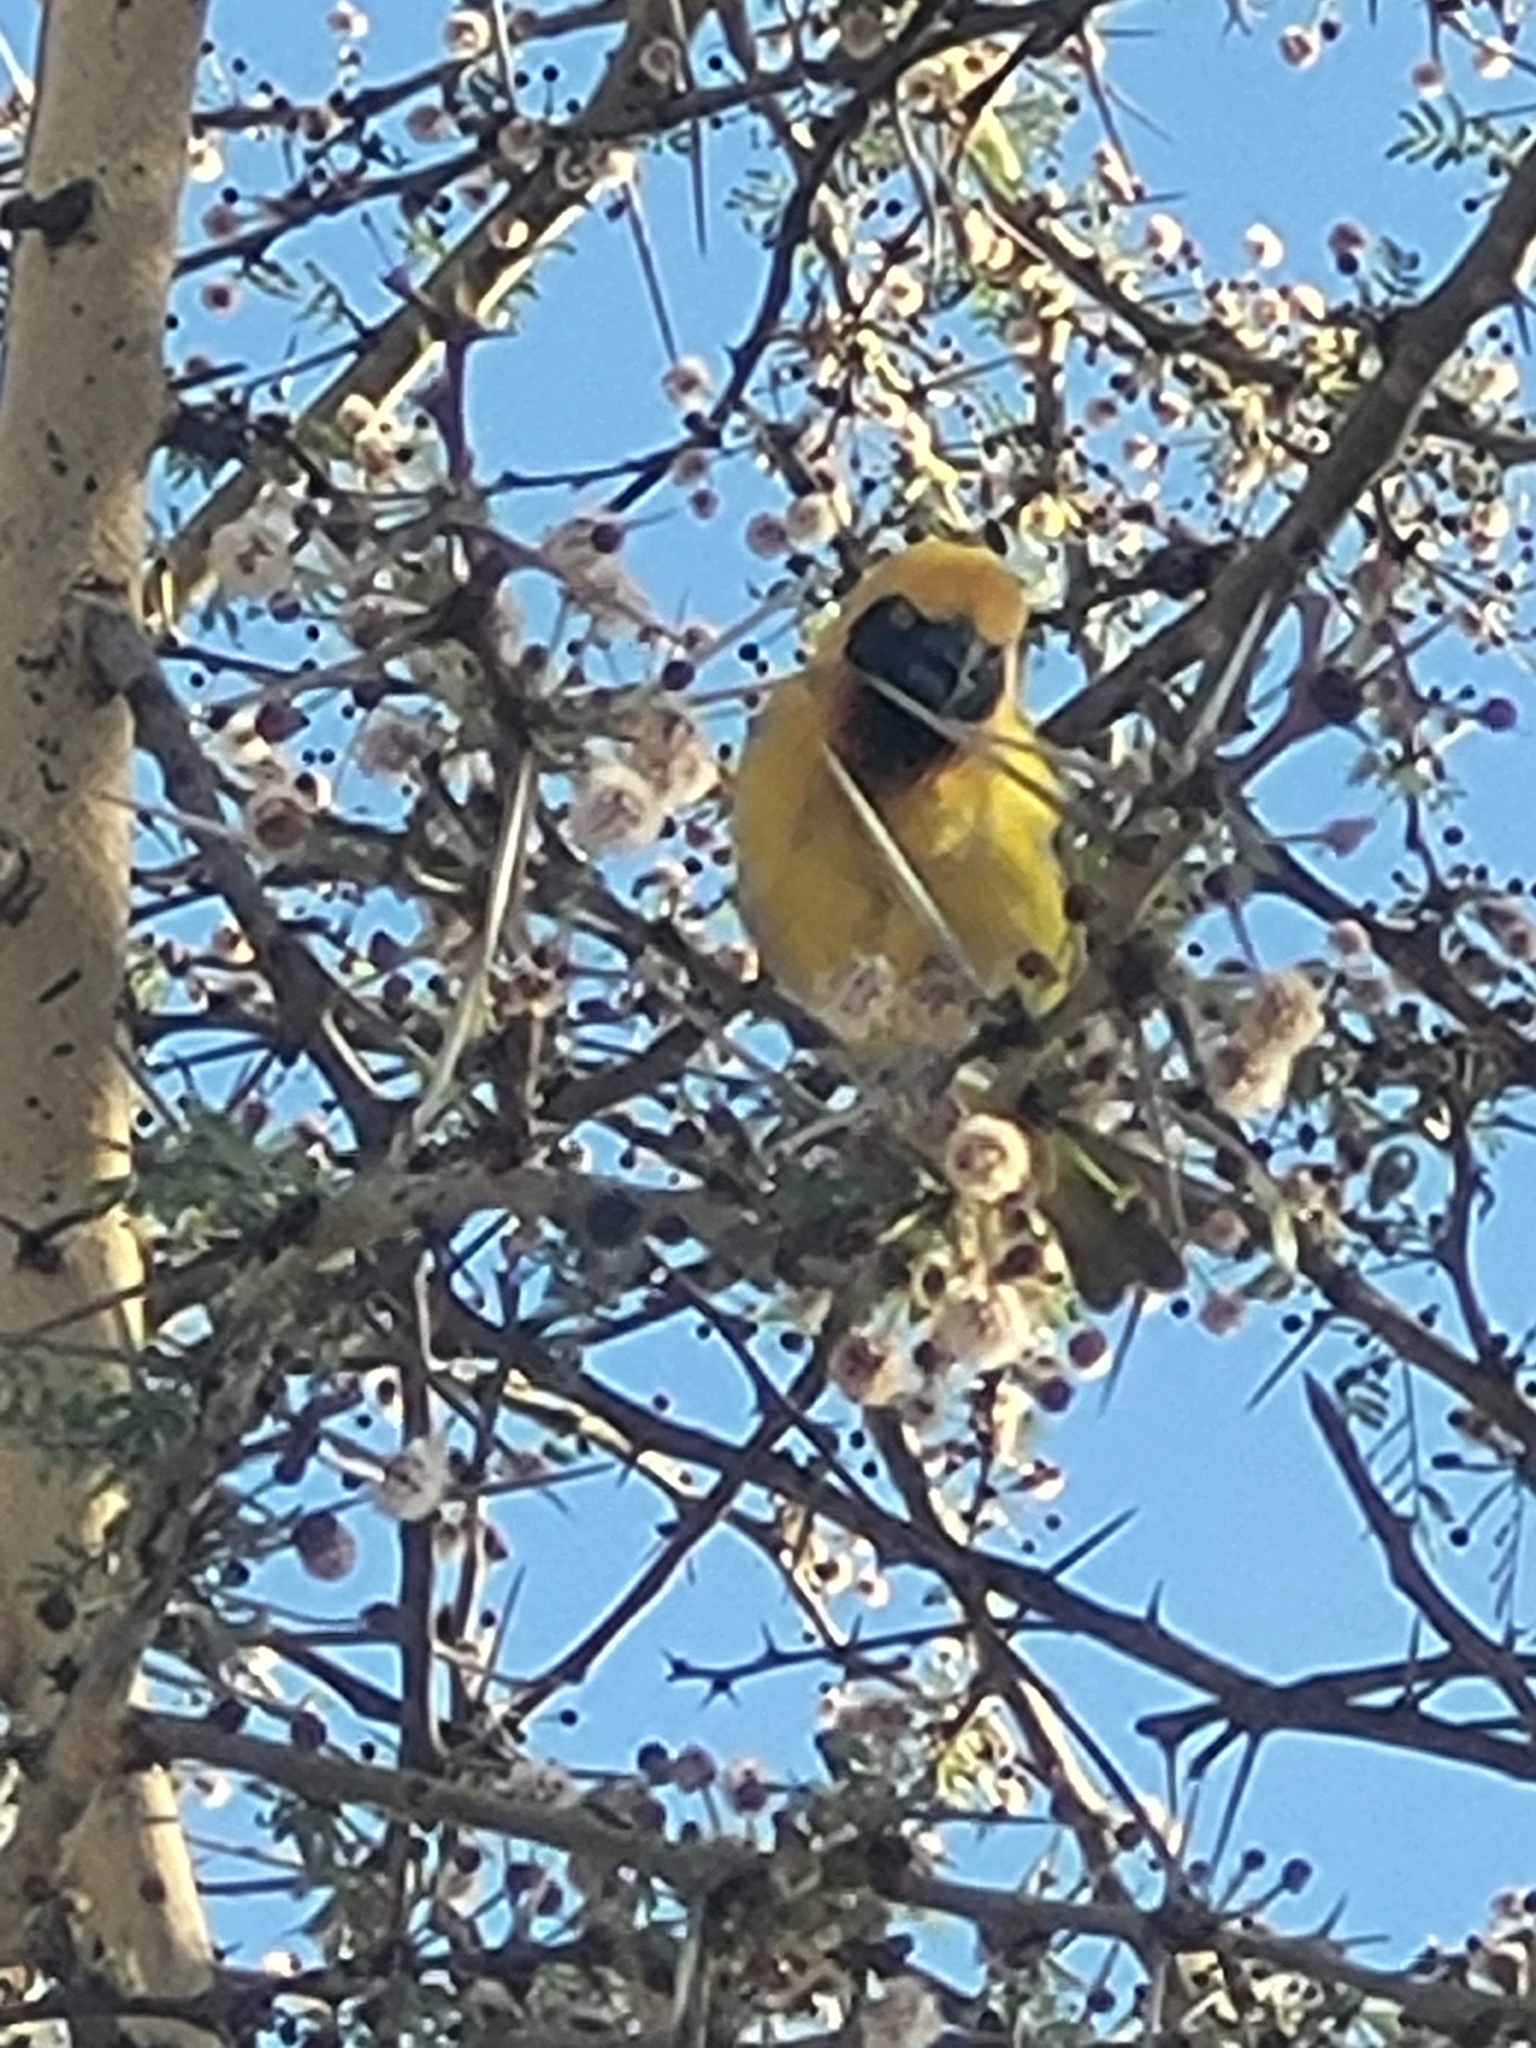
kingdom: Animalia
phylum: Chordata
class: Aves
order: Passeriformes
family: Ploceidae
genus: Ploceus
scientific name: Ploceus spekei
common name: Speke's weaver
